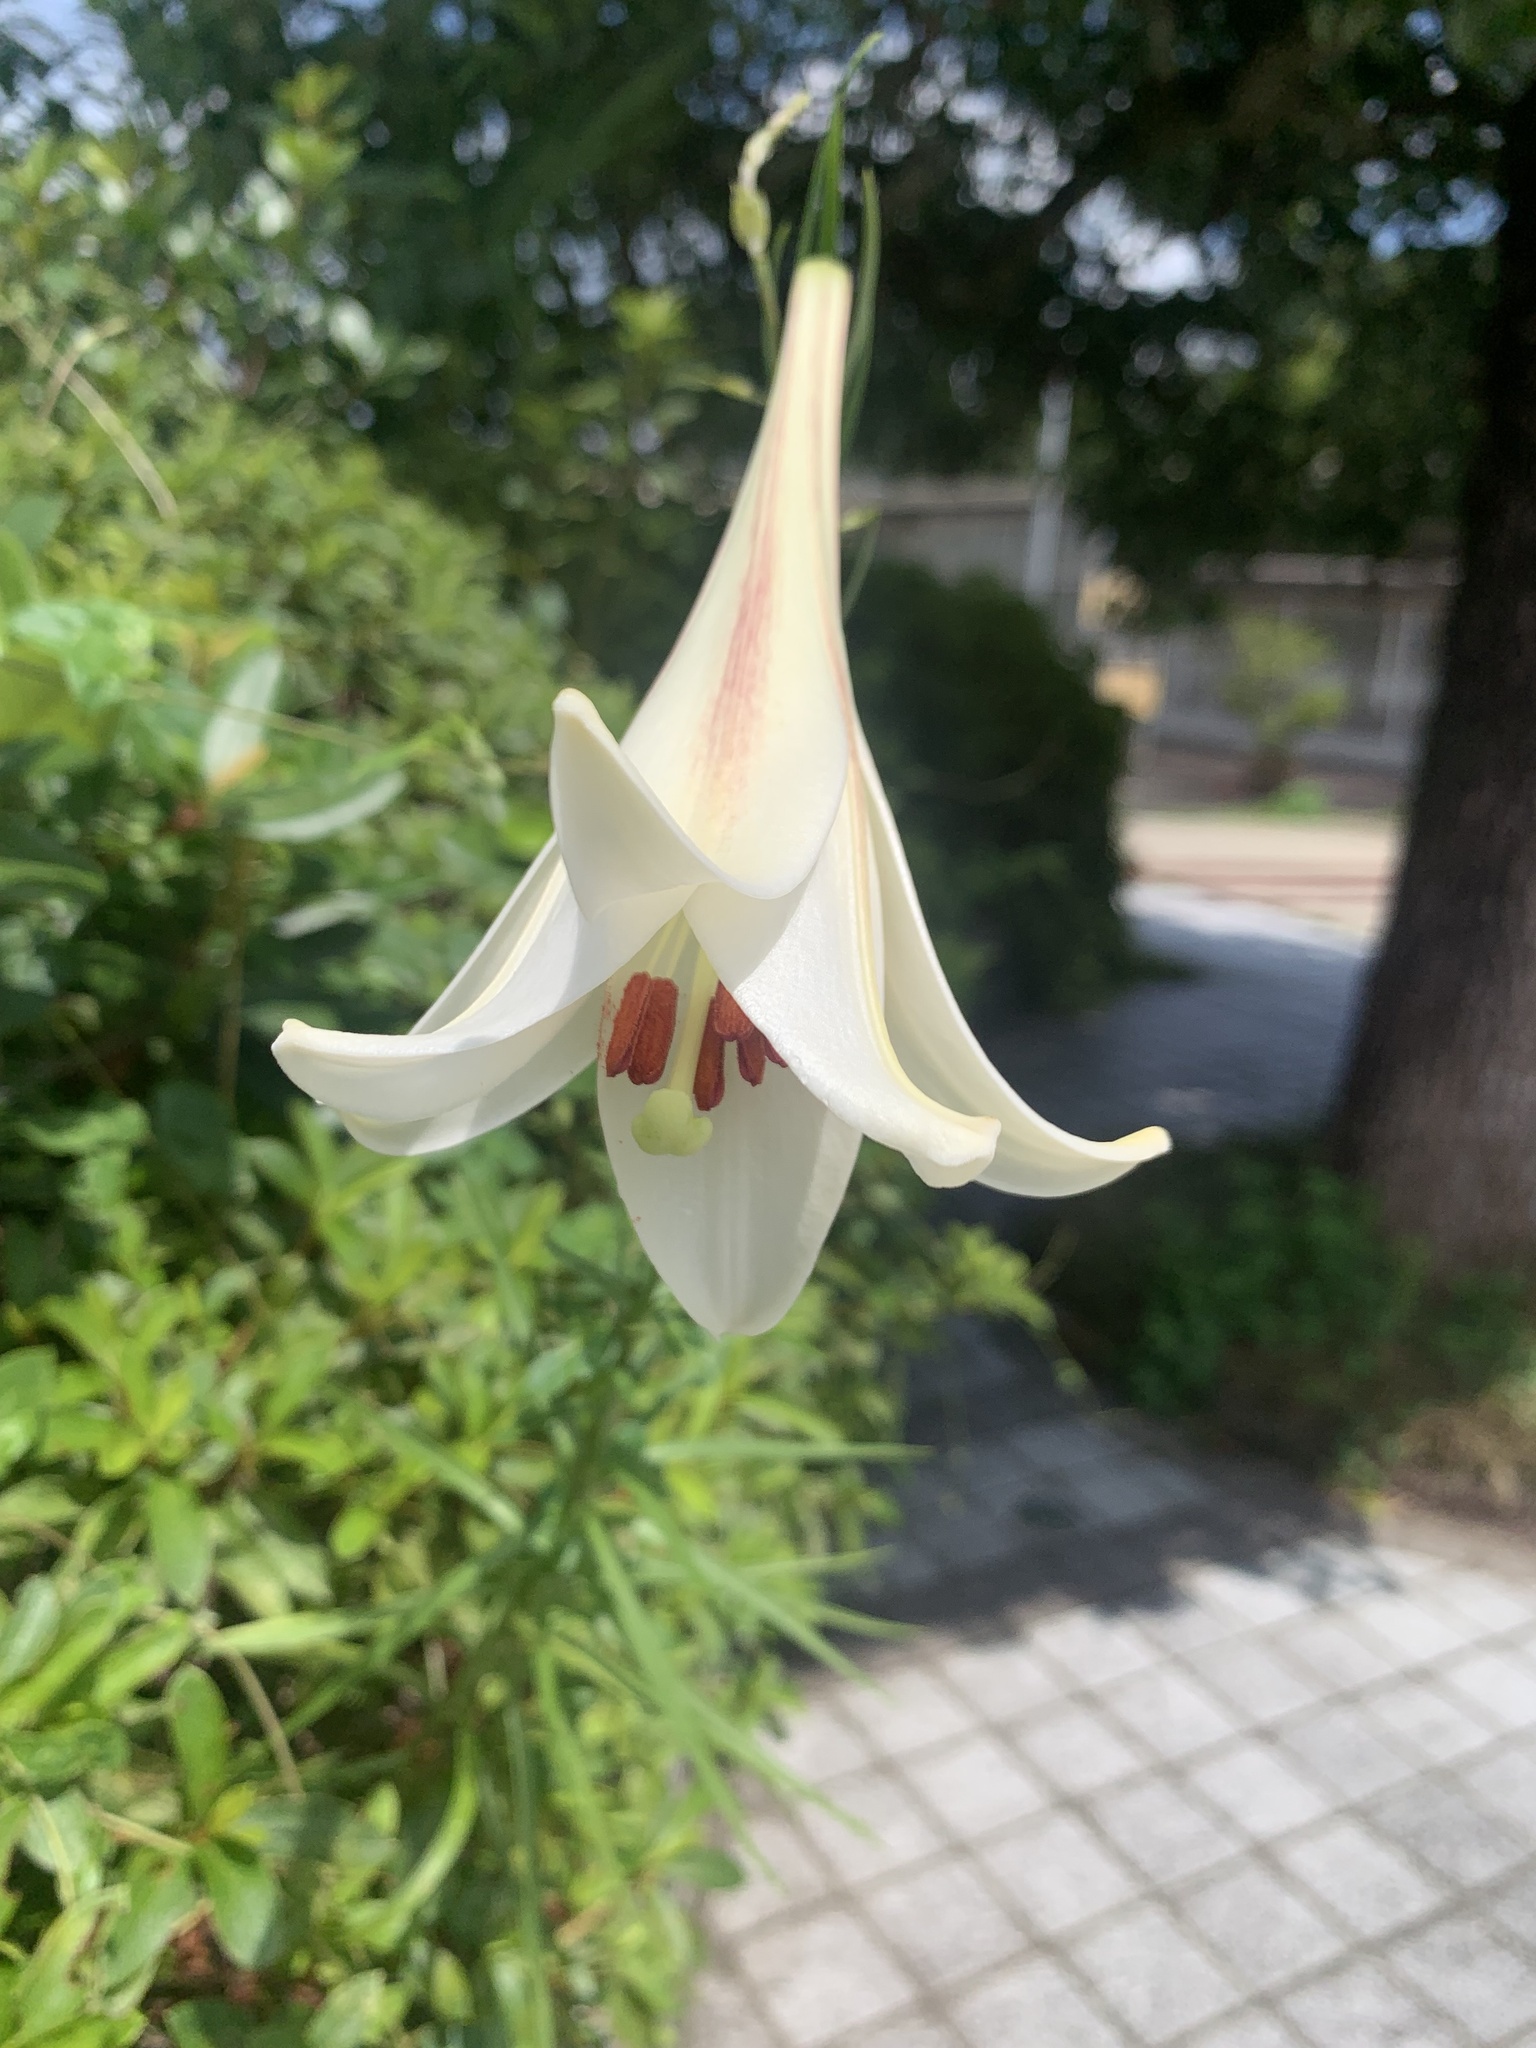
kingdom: Plantae
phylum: Tracheophyta
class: Liliopsida
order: Liliales
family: Liliaceae
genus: Lilium
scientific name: Lilium formosanum
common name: Formosa lily
